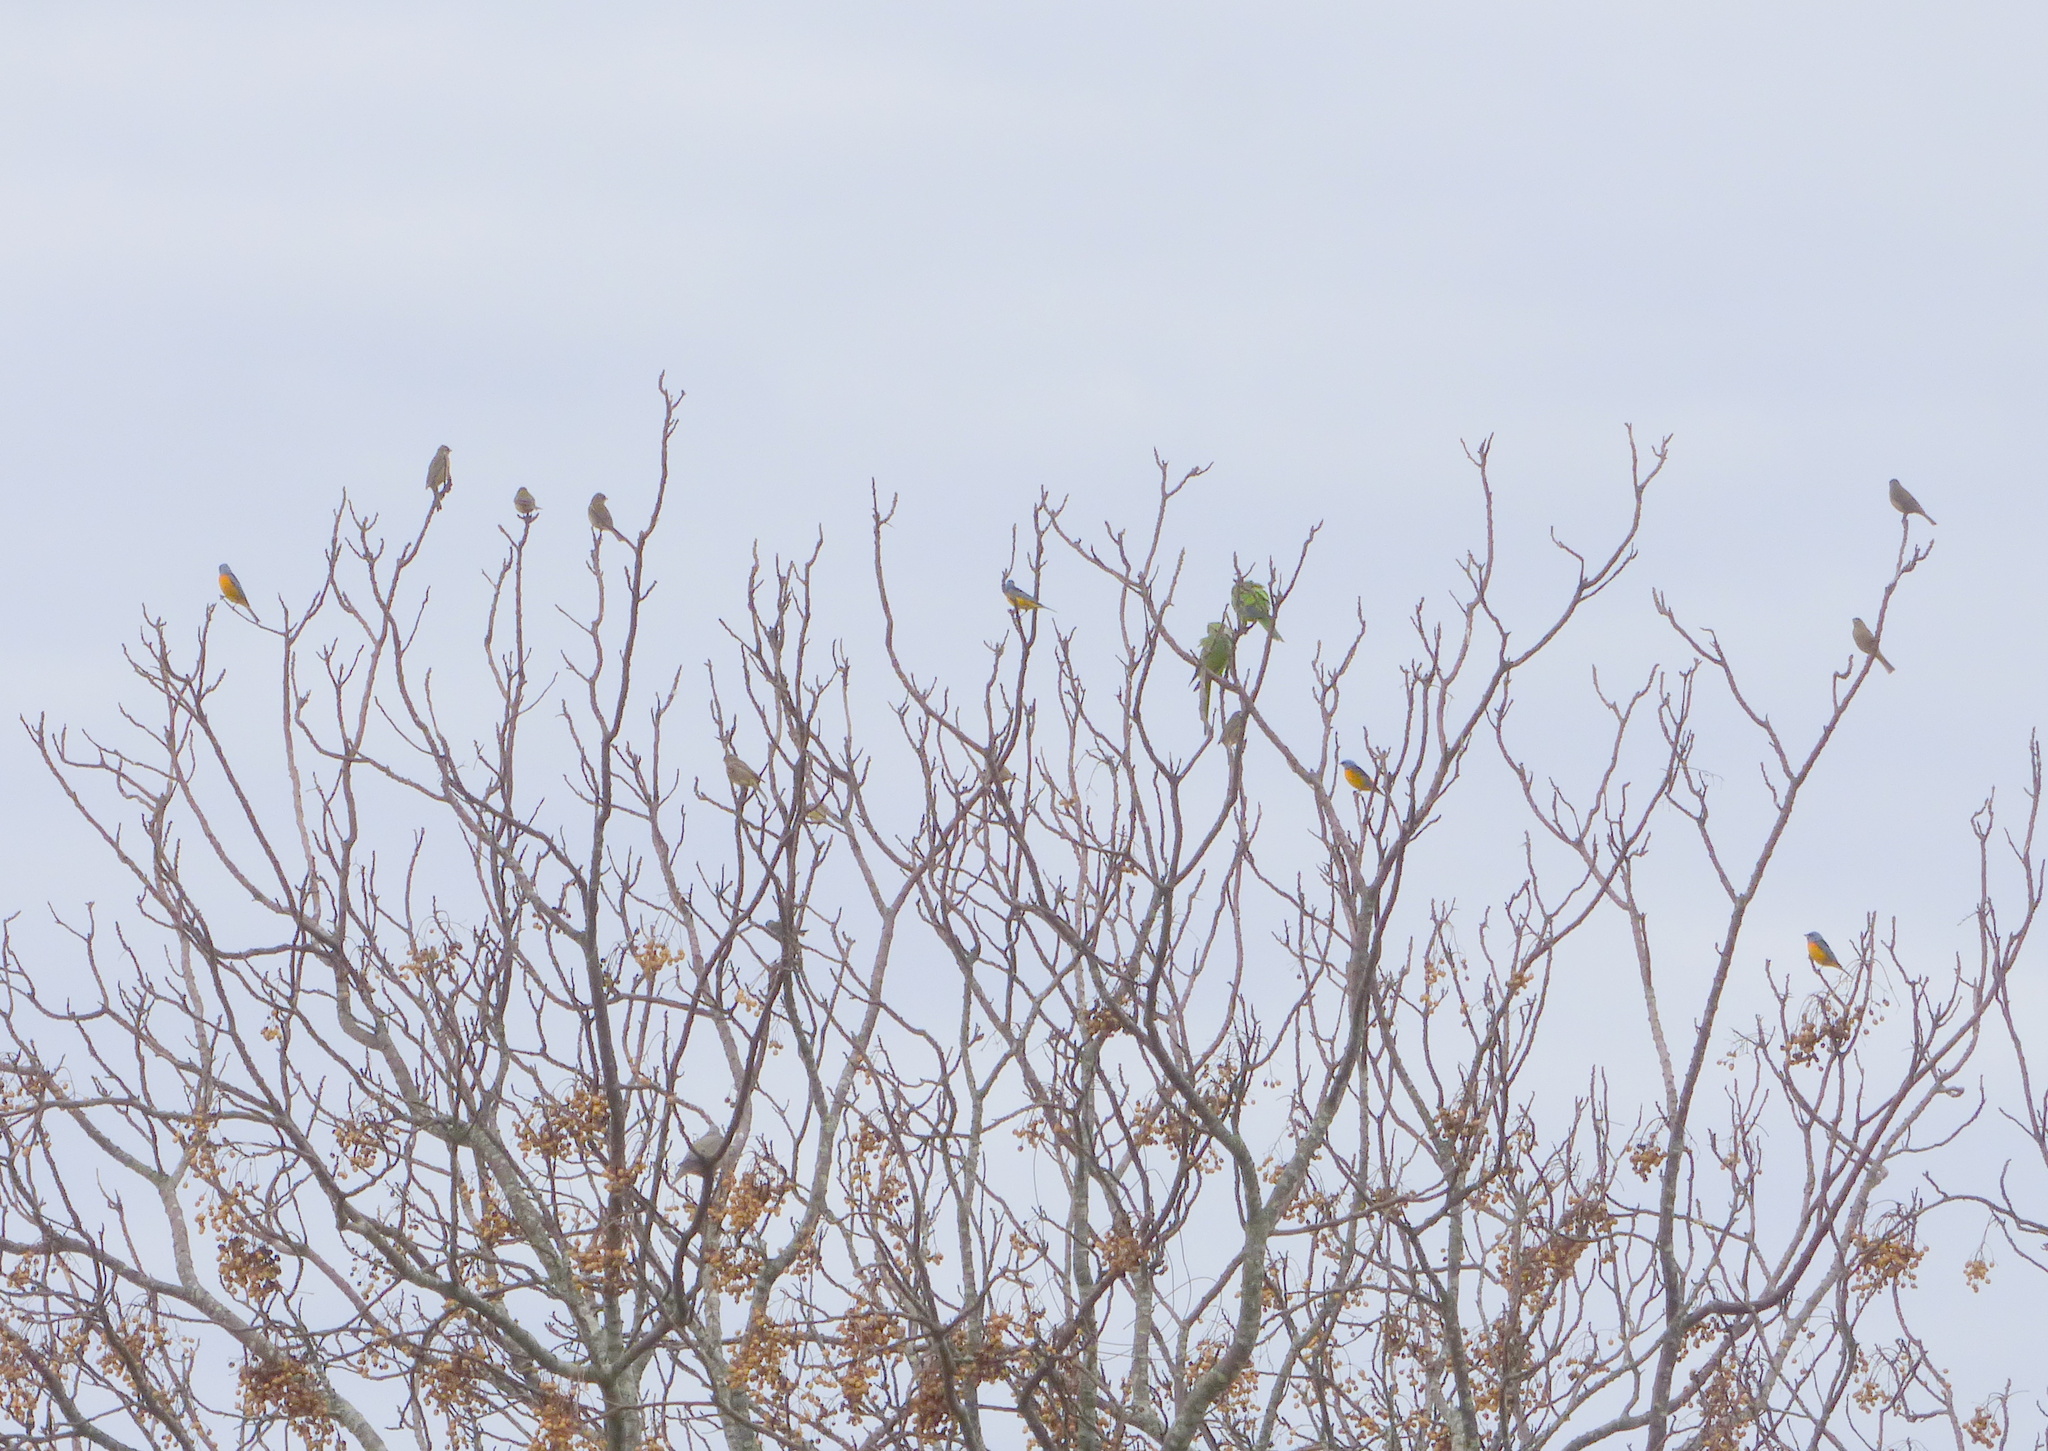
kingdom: Animalia
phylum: Chordata
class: Aves
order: Passeriformes
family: Thraupidae
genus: Rauenia
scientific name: Rauenia bonariensis
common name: Blue-and-yellow tanager
